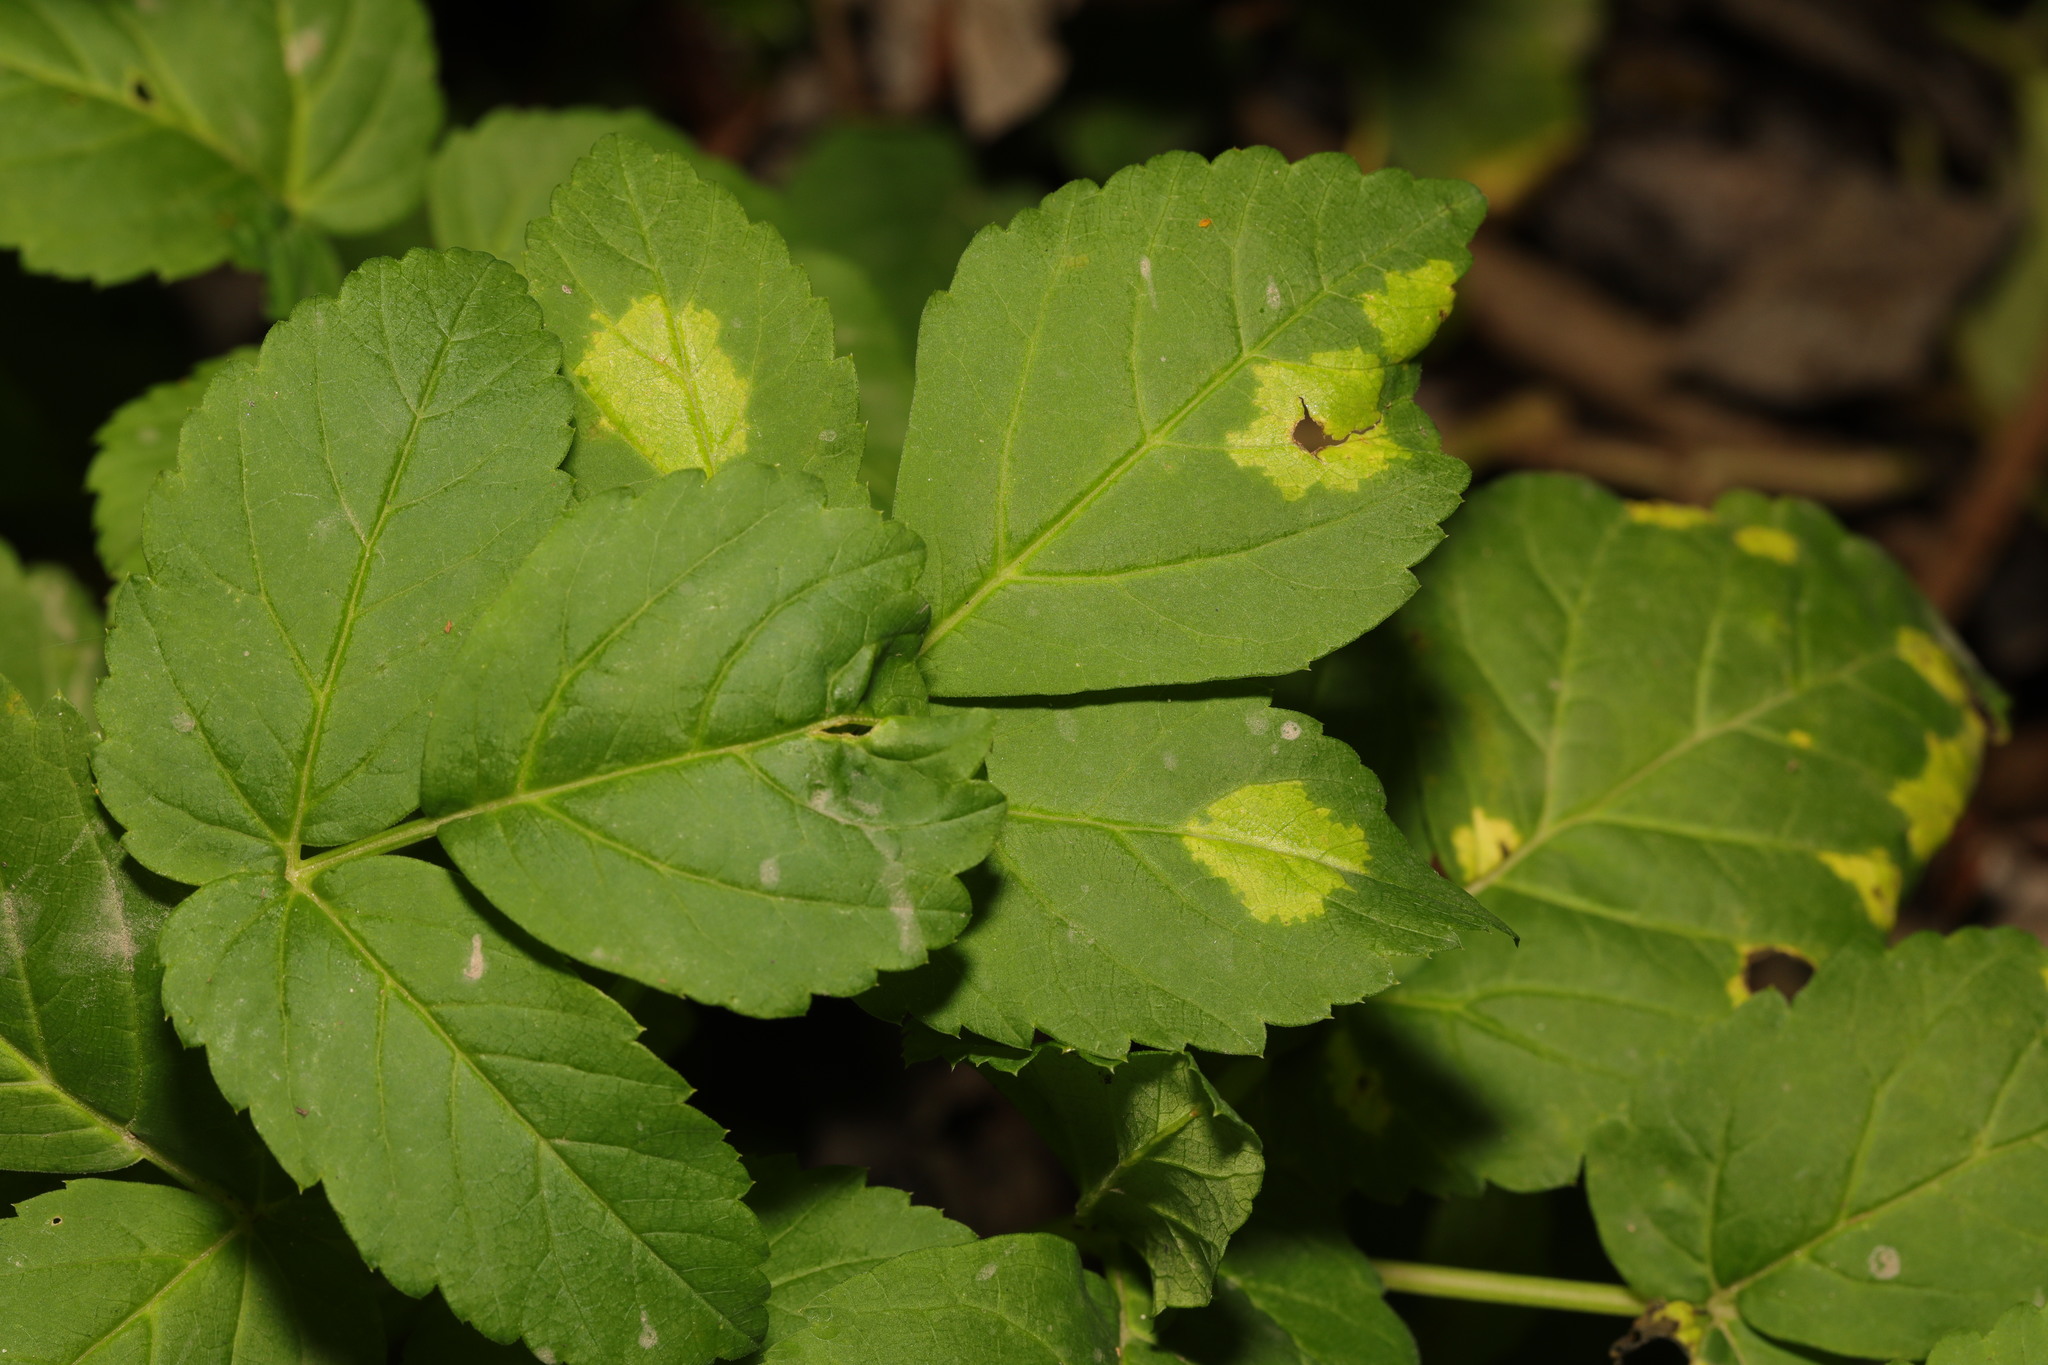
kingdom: Chromista
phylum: Oomycota
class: Peronosporea
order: Peronosporales
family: Peronosporaceae
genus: Peronospora
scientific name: Peronospora crustosa
